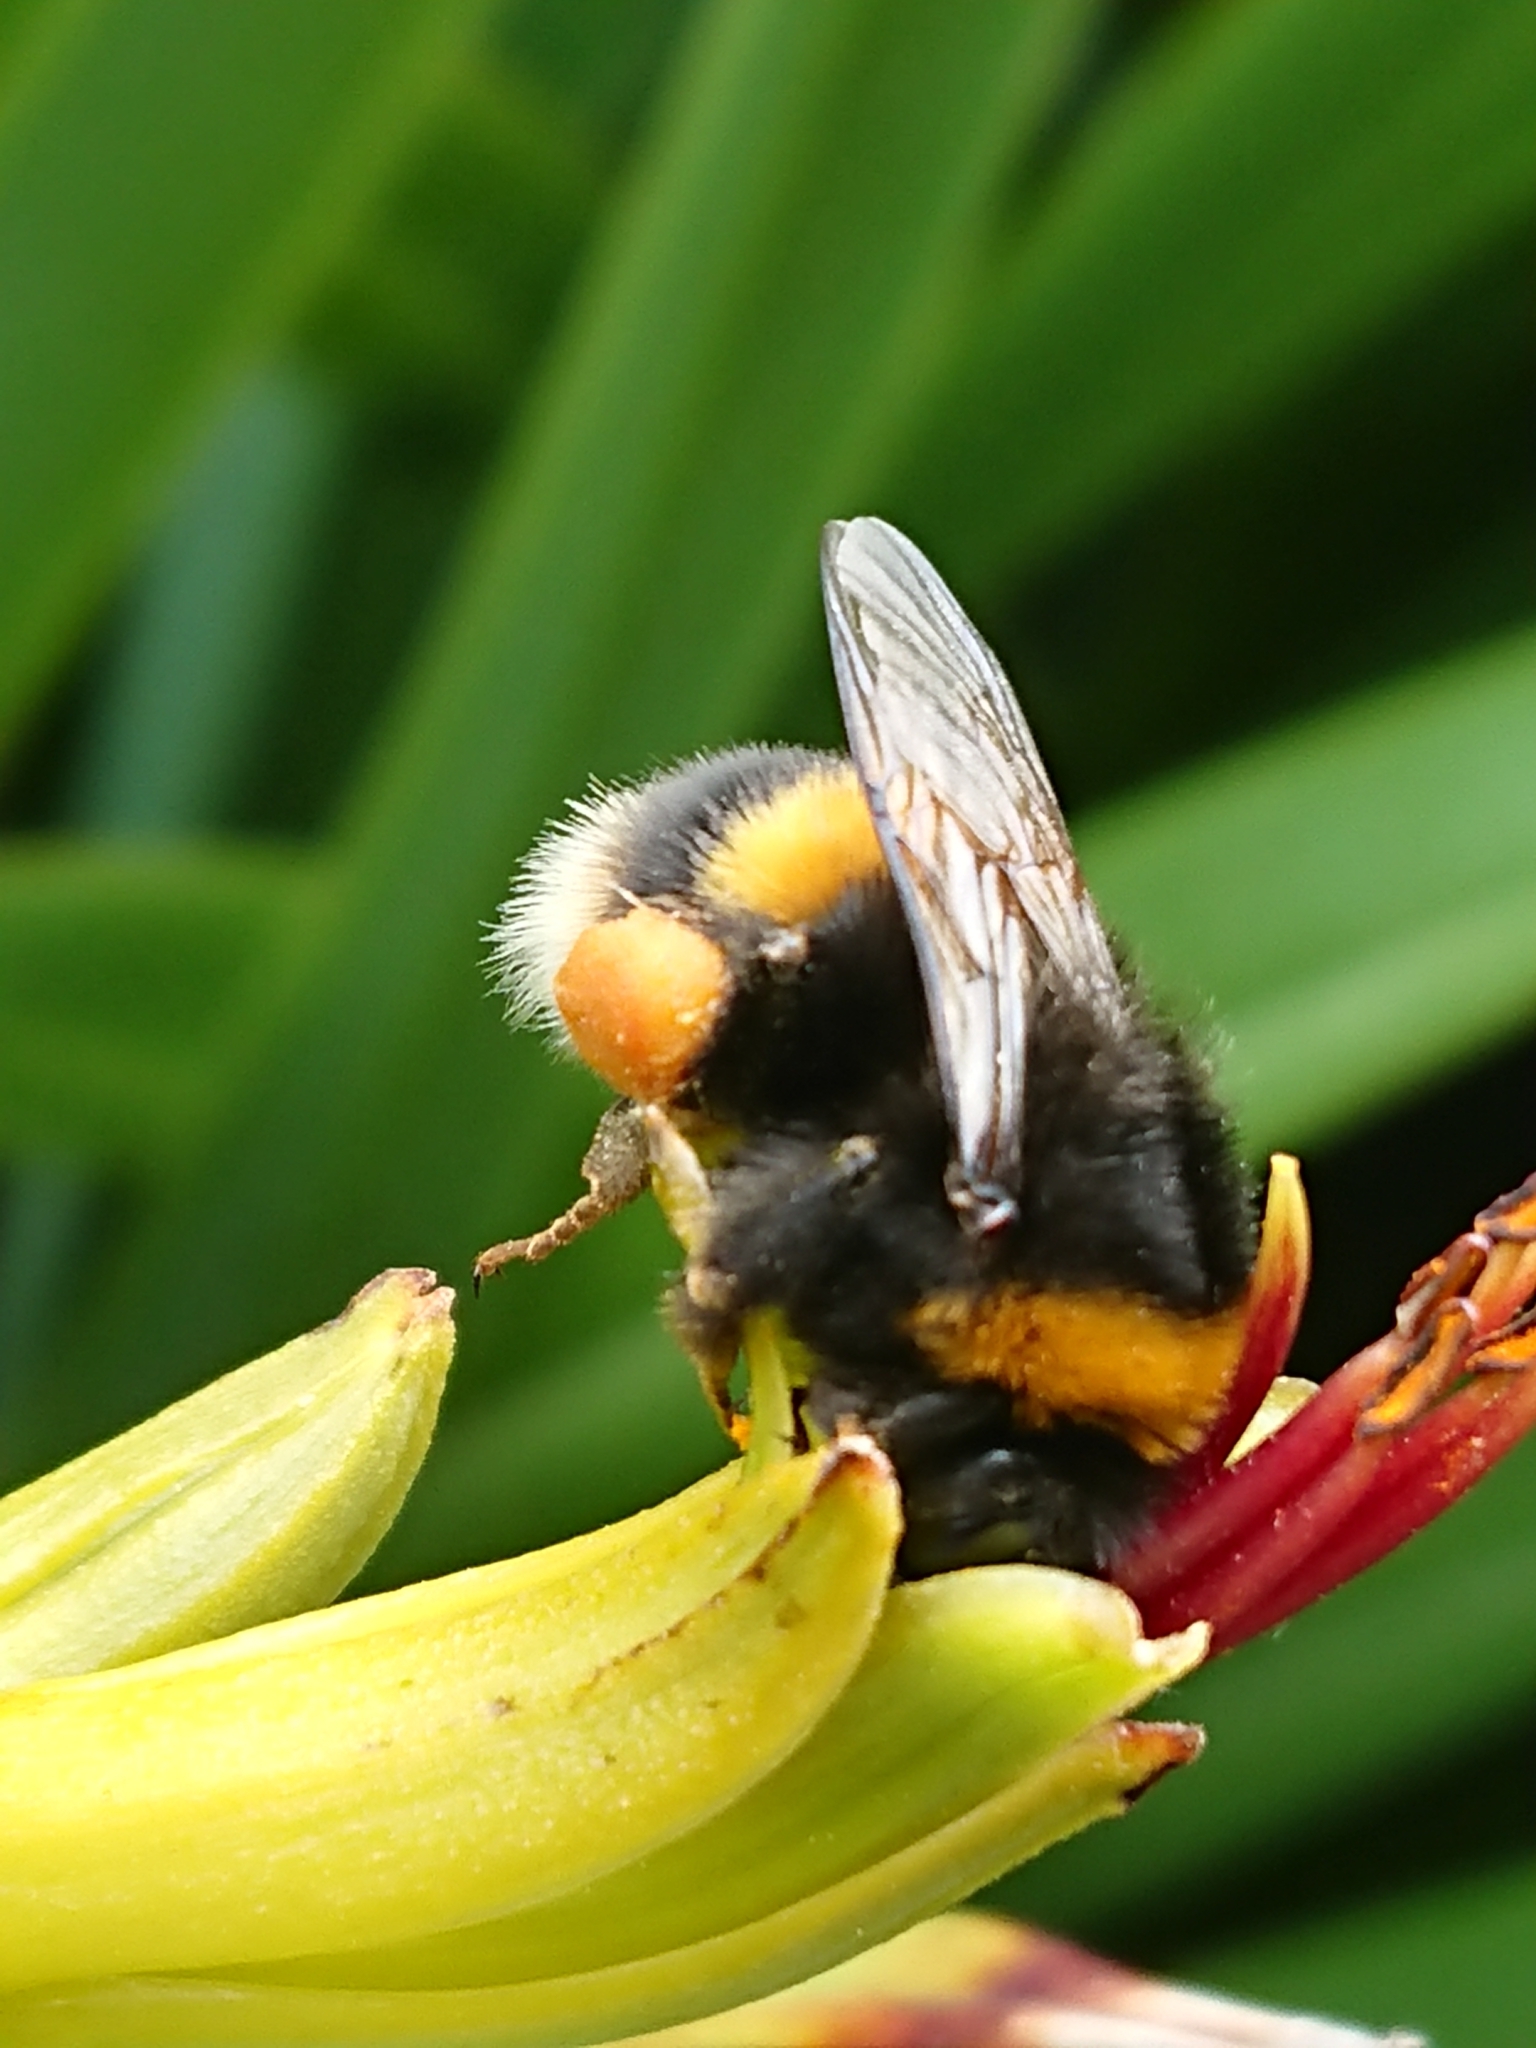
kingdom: Animalia
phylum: Arthropoda
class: Insecta
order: Hymenoptera
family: Apidae
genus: Bombus
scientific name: Bombus terrestris
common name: Buff-tailed bumblebee
